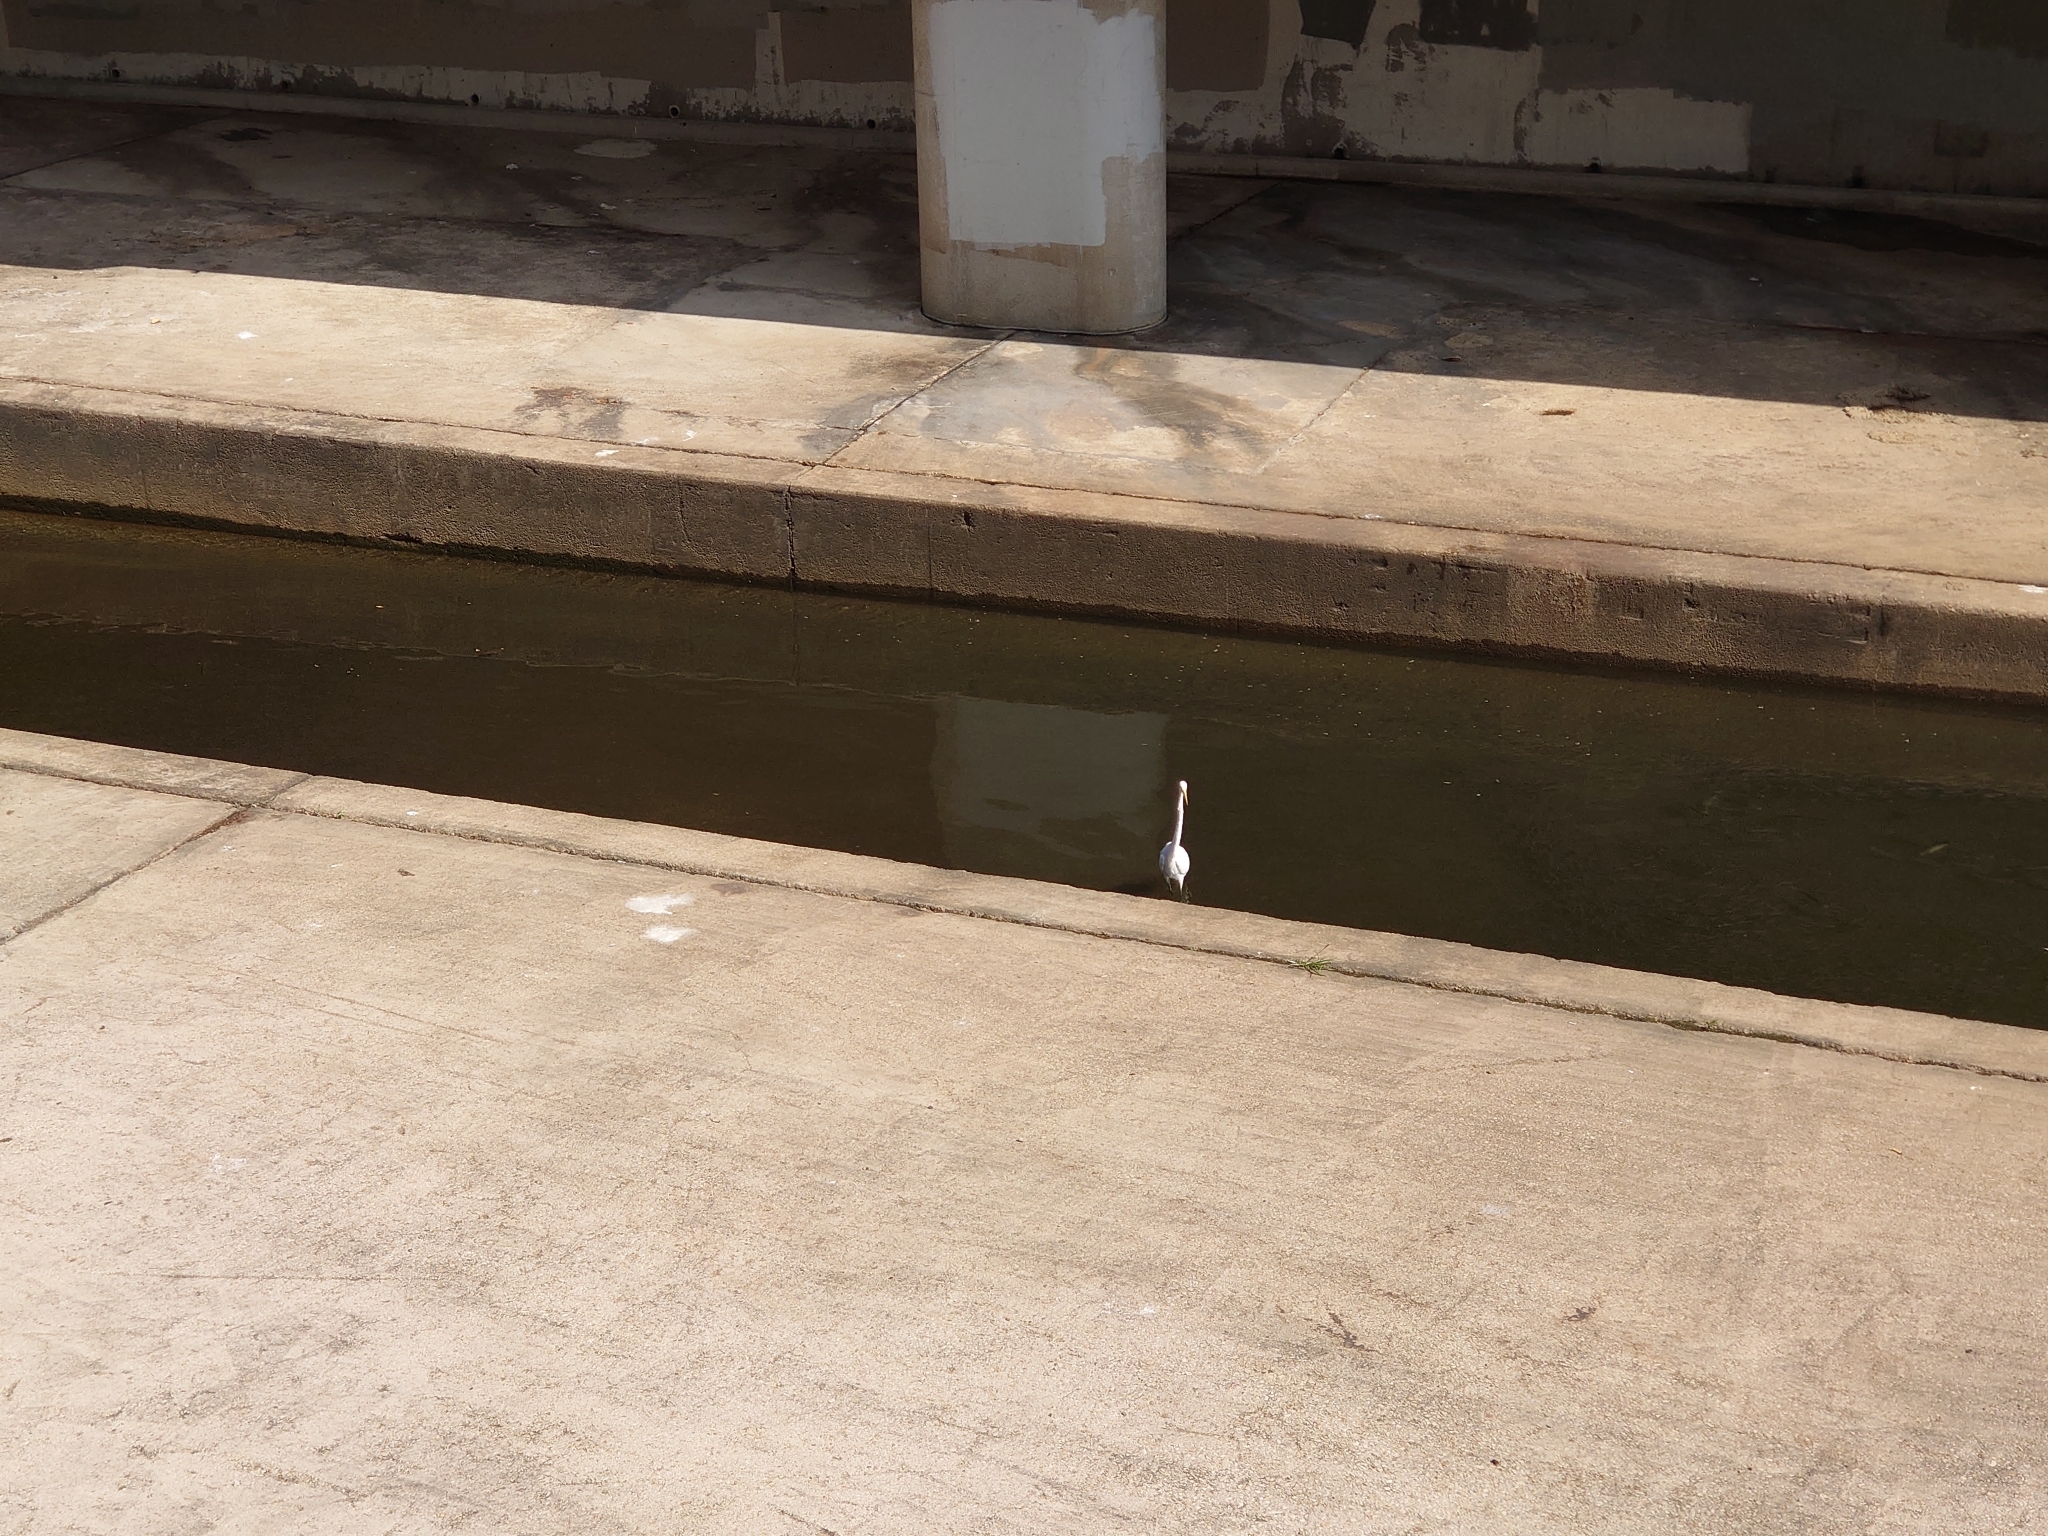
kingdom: Animalia
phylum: Chordata
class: Aves
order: Pelecaniformes
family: Ardeidae
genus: Ardea
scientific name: Ardea alba
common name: Great egret
